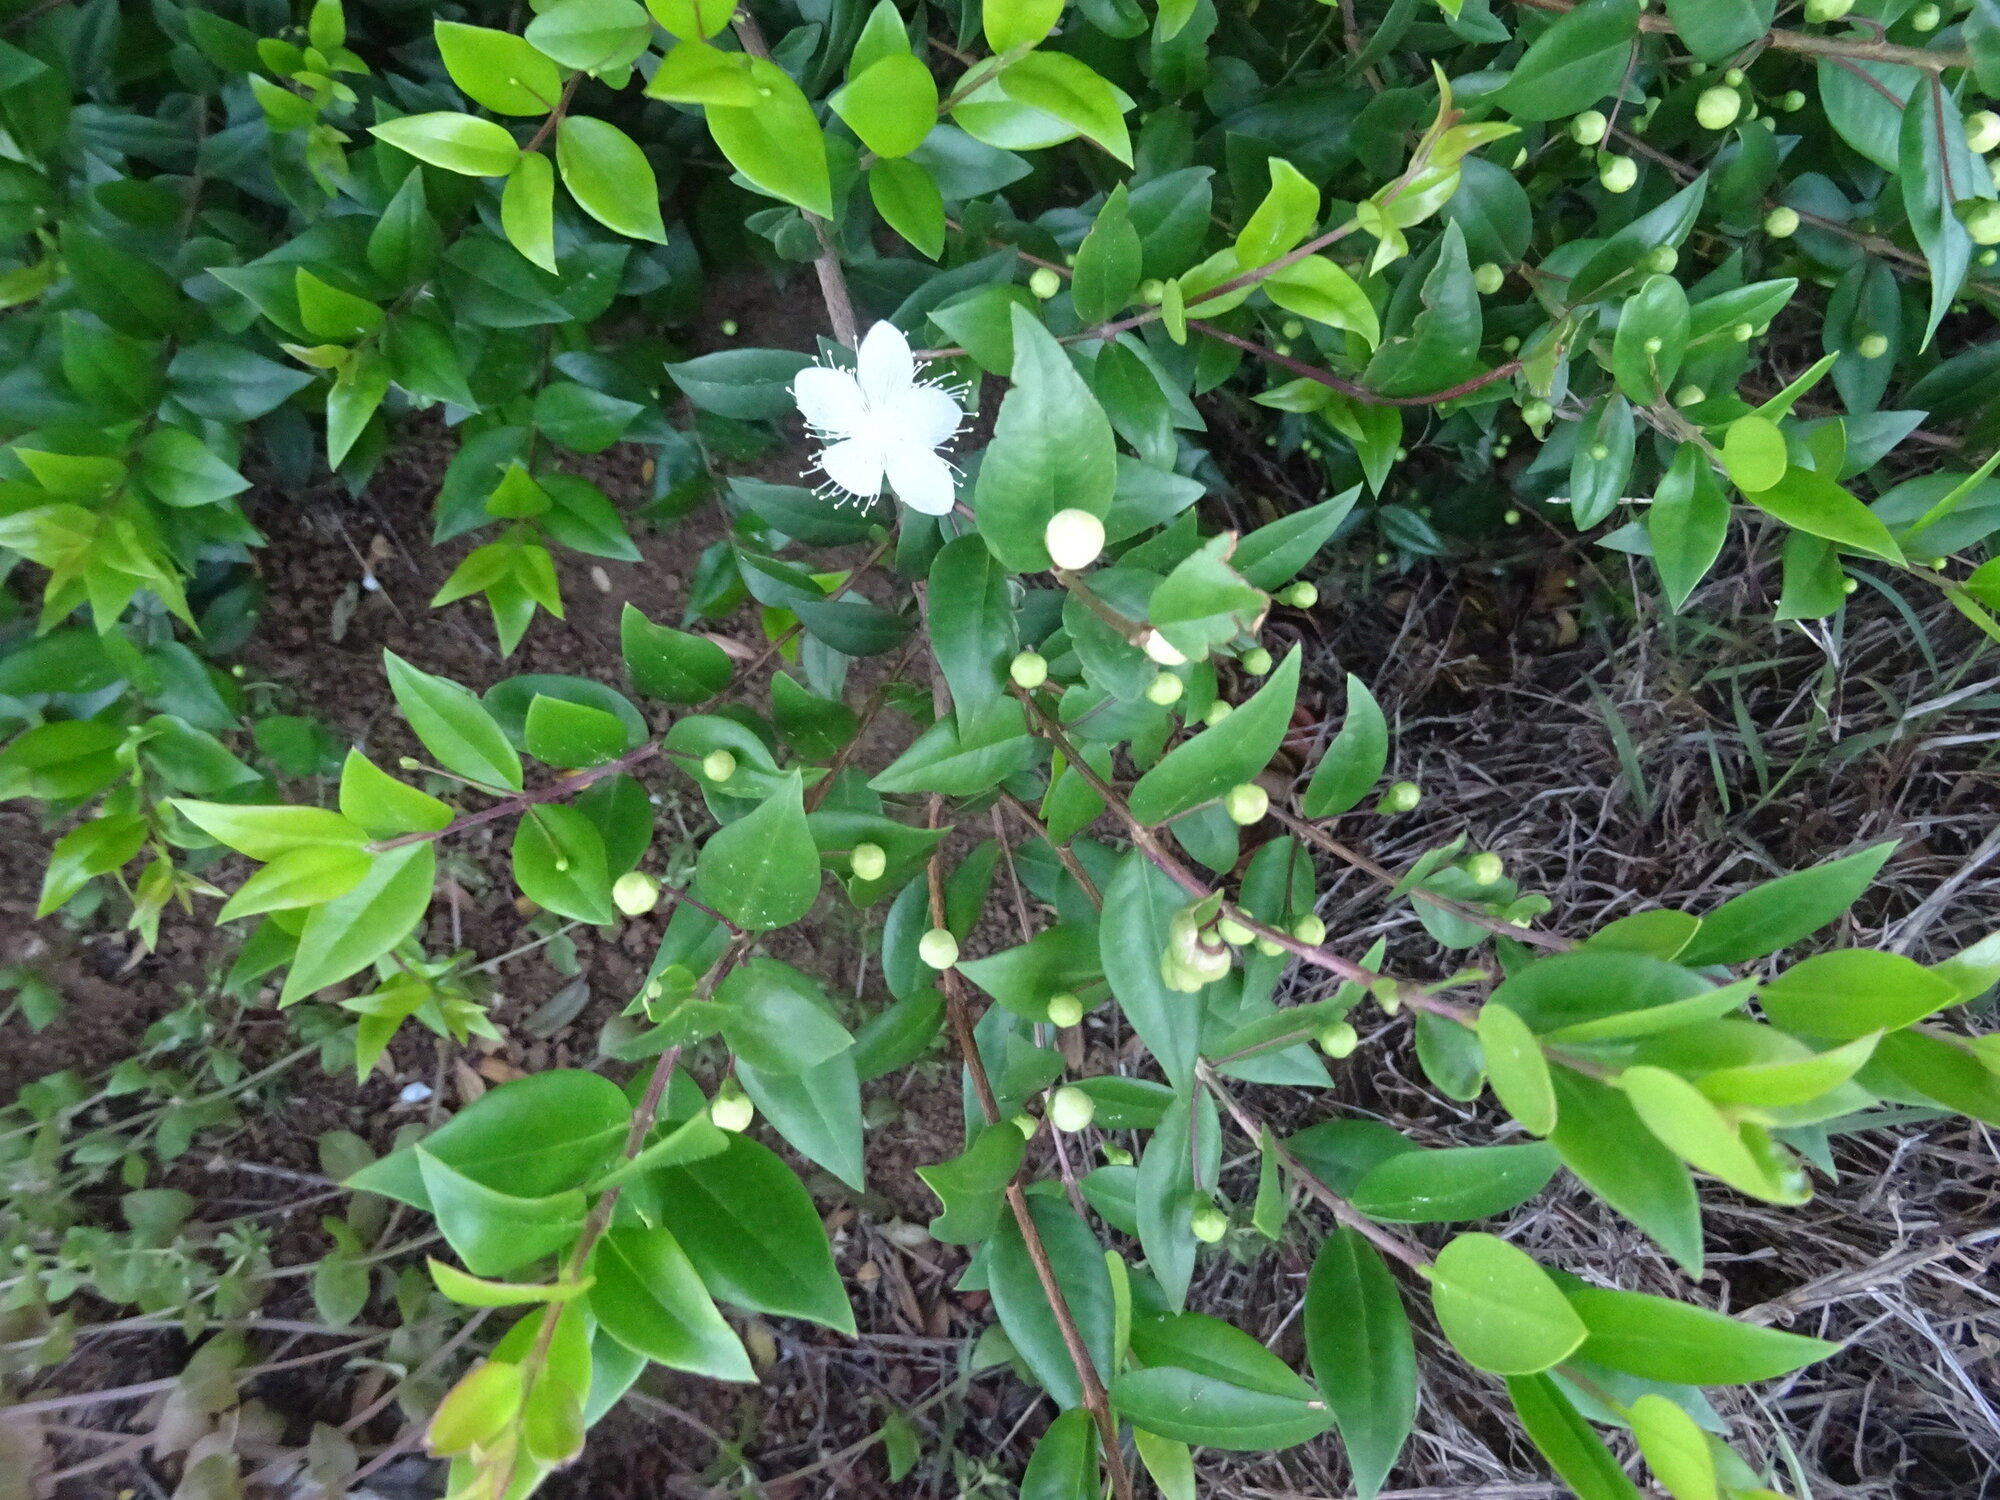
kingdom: Plantae
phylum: Tracheophyta
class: Magnoliopsida
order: Myrtales
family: Myrtaceae
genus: Myrtus
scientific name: Myrtus communis
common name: Myrtle
